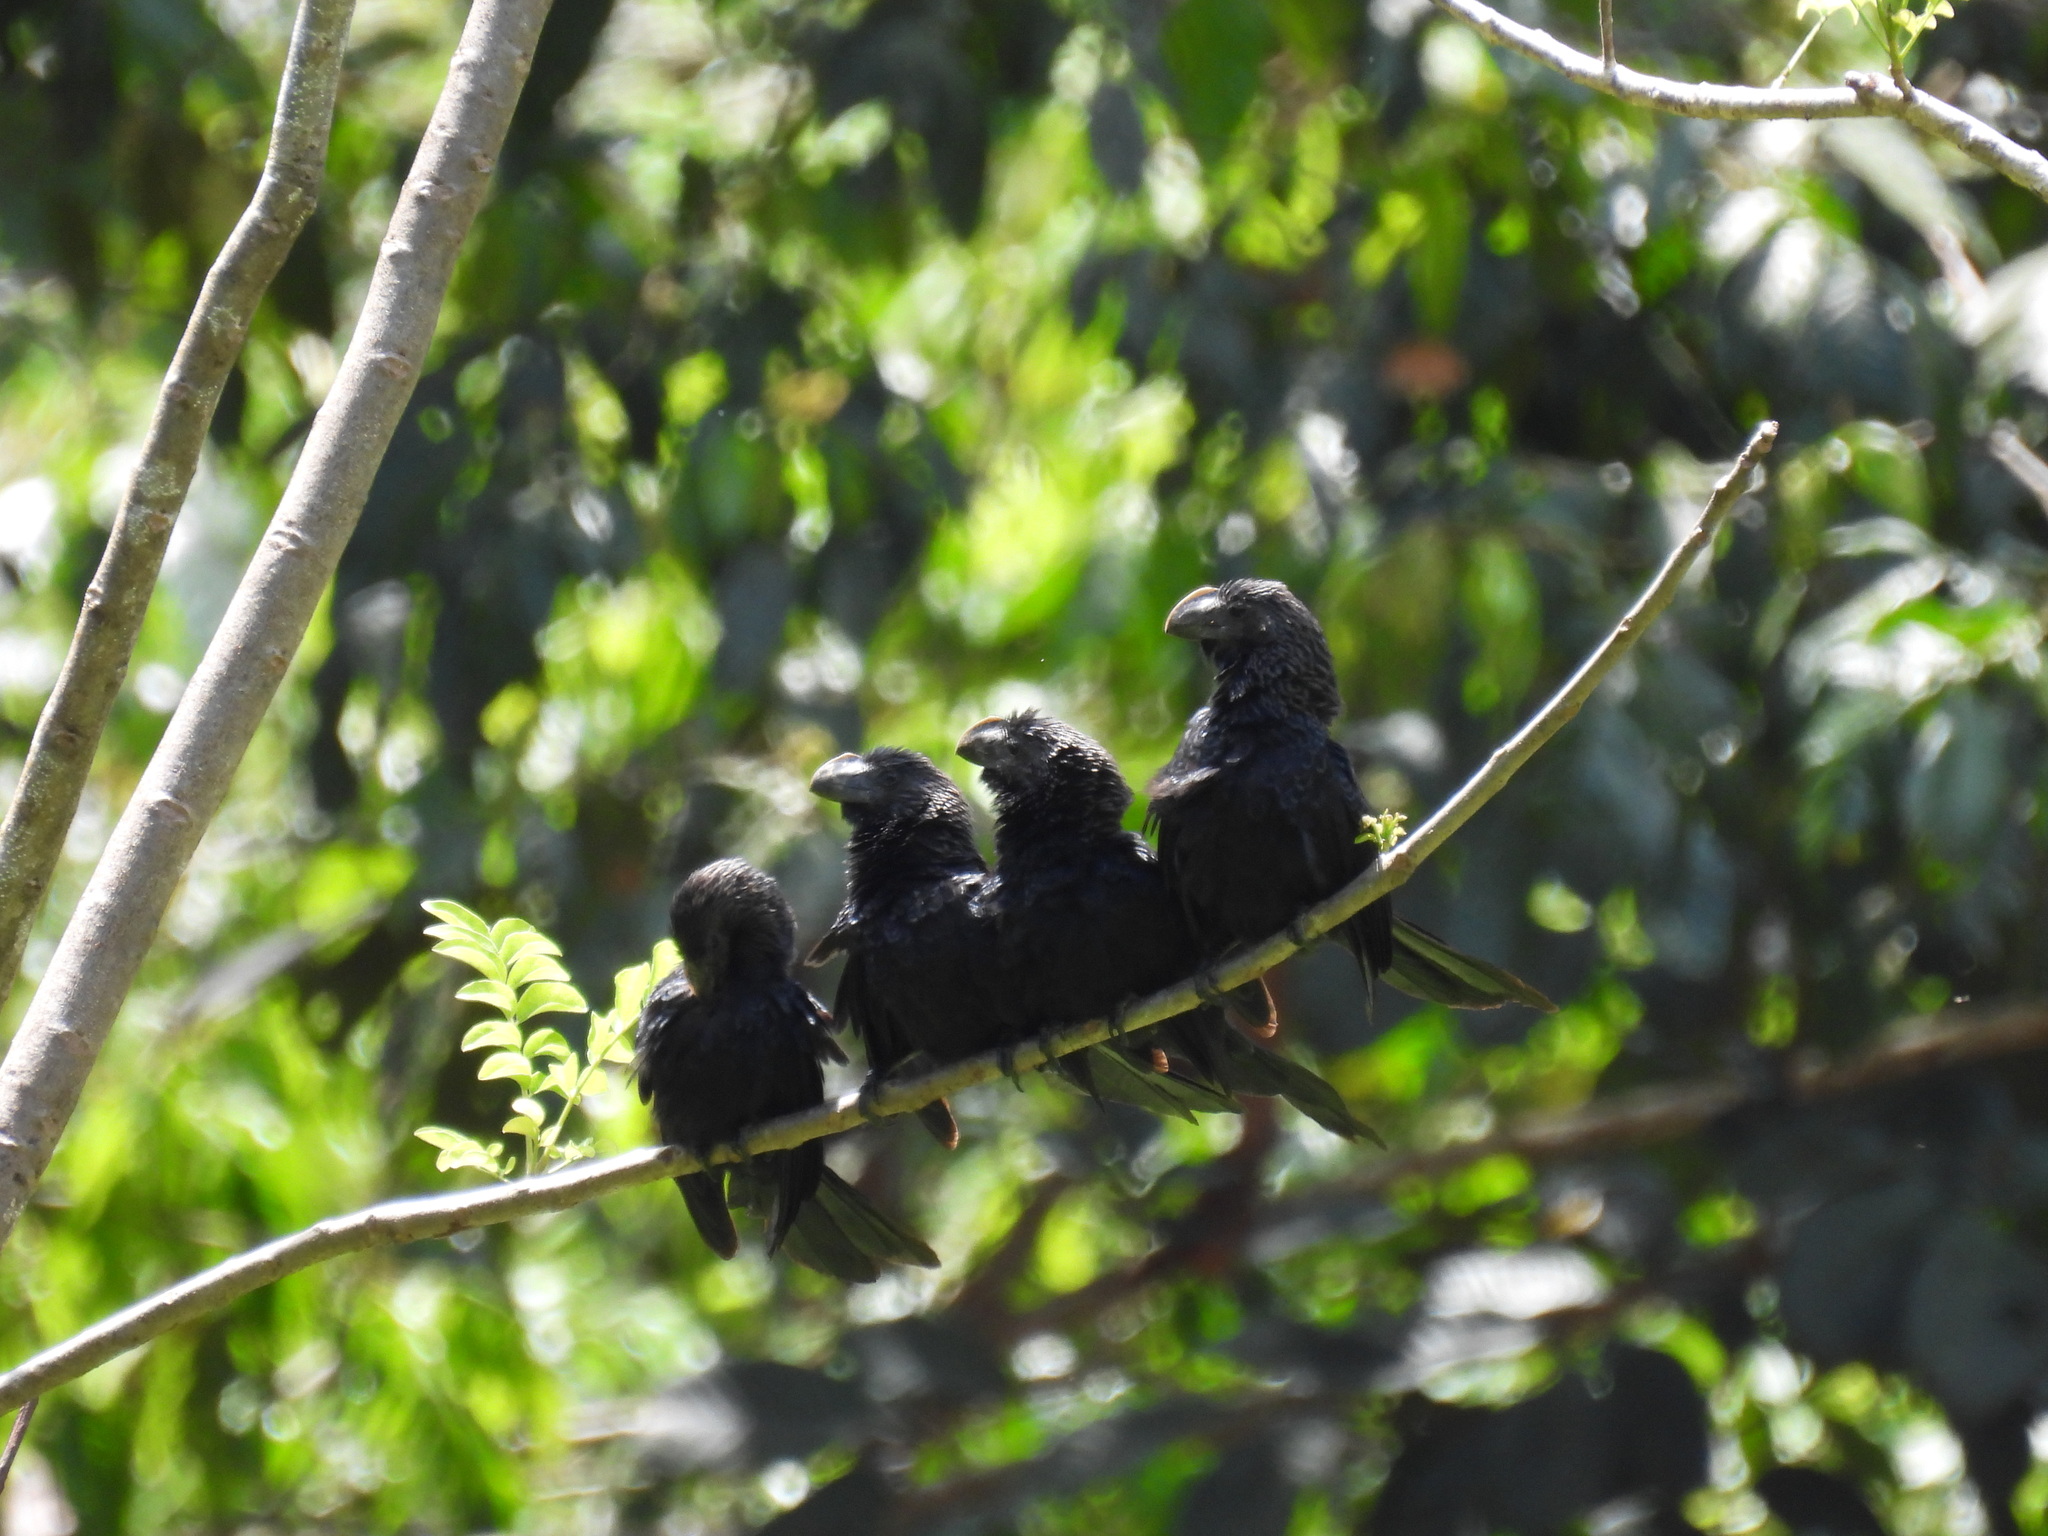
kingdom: Animalia
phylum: Chordata
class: Aves
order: Cuculiformes
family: Cuculidae
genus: Crotophaga
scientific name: Crotophaga ani
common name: Smooth-billed ani
